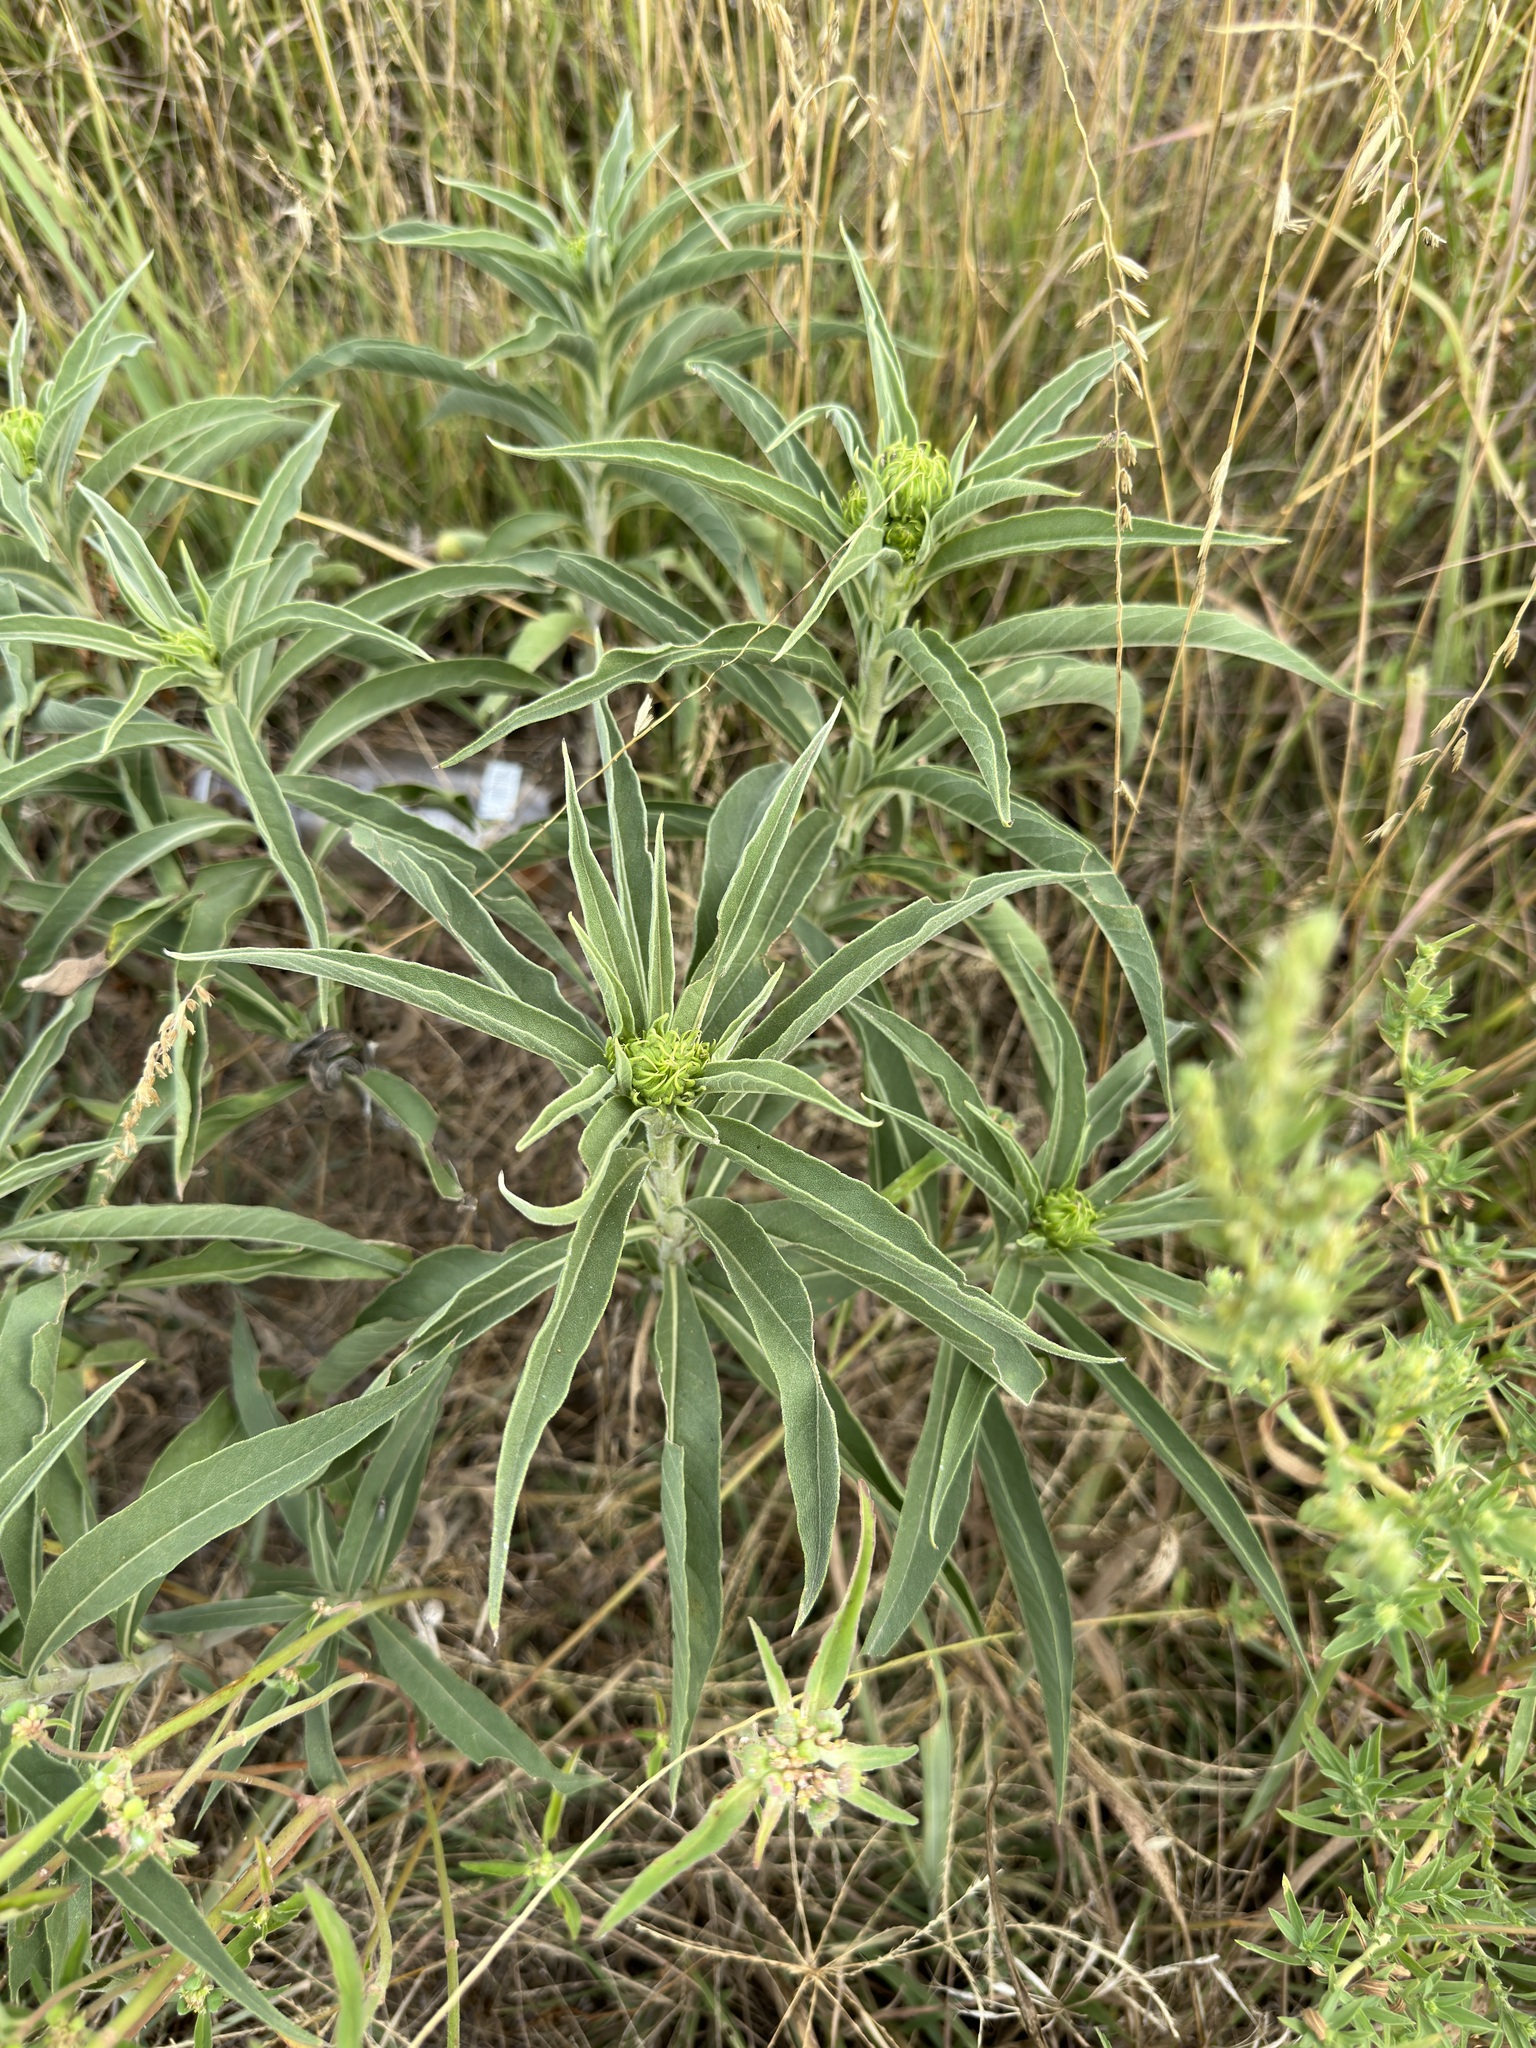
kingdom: Plantae
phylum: Tracheophyta
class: Magnoliopsida
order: Asterales
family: Asteraceae
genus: Helianthus
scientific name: Helianthus maximiliani
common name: Maximilian's sunflower
